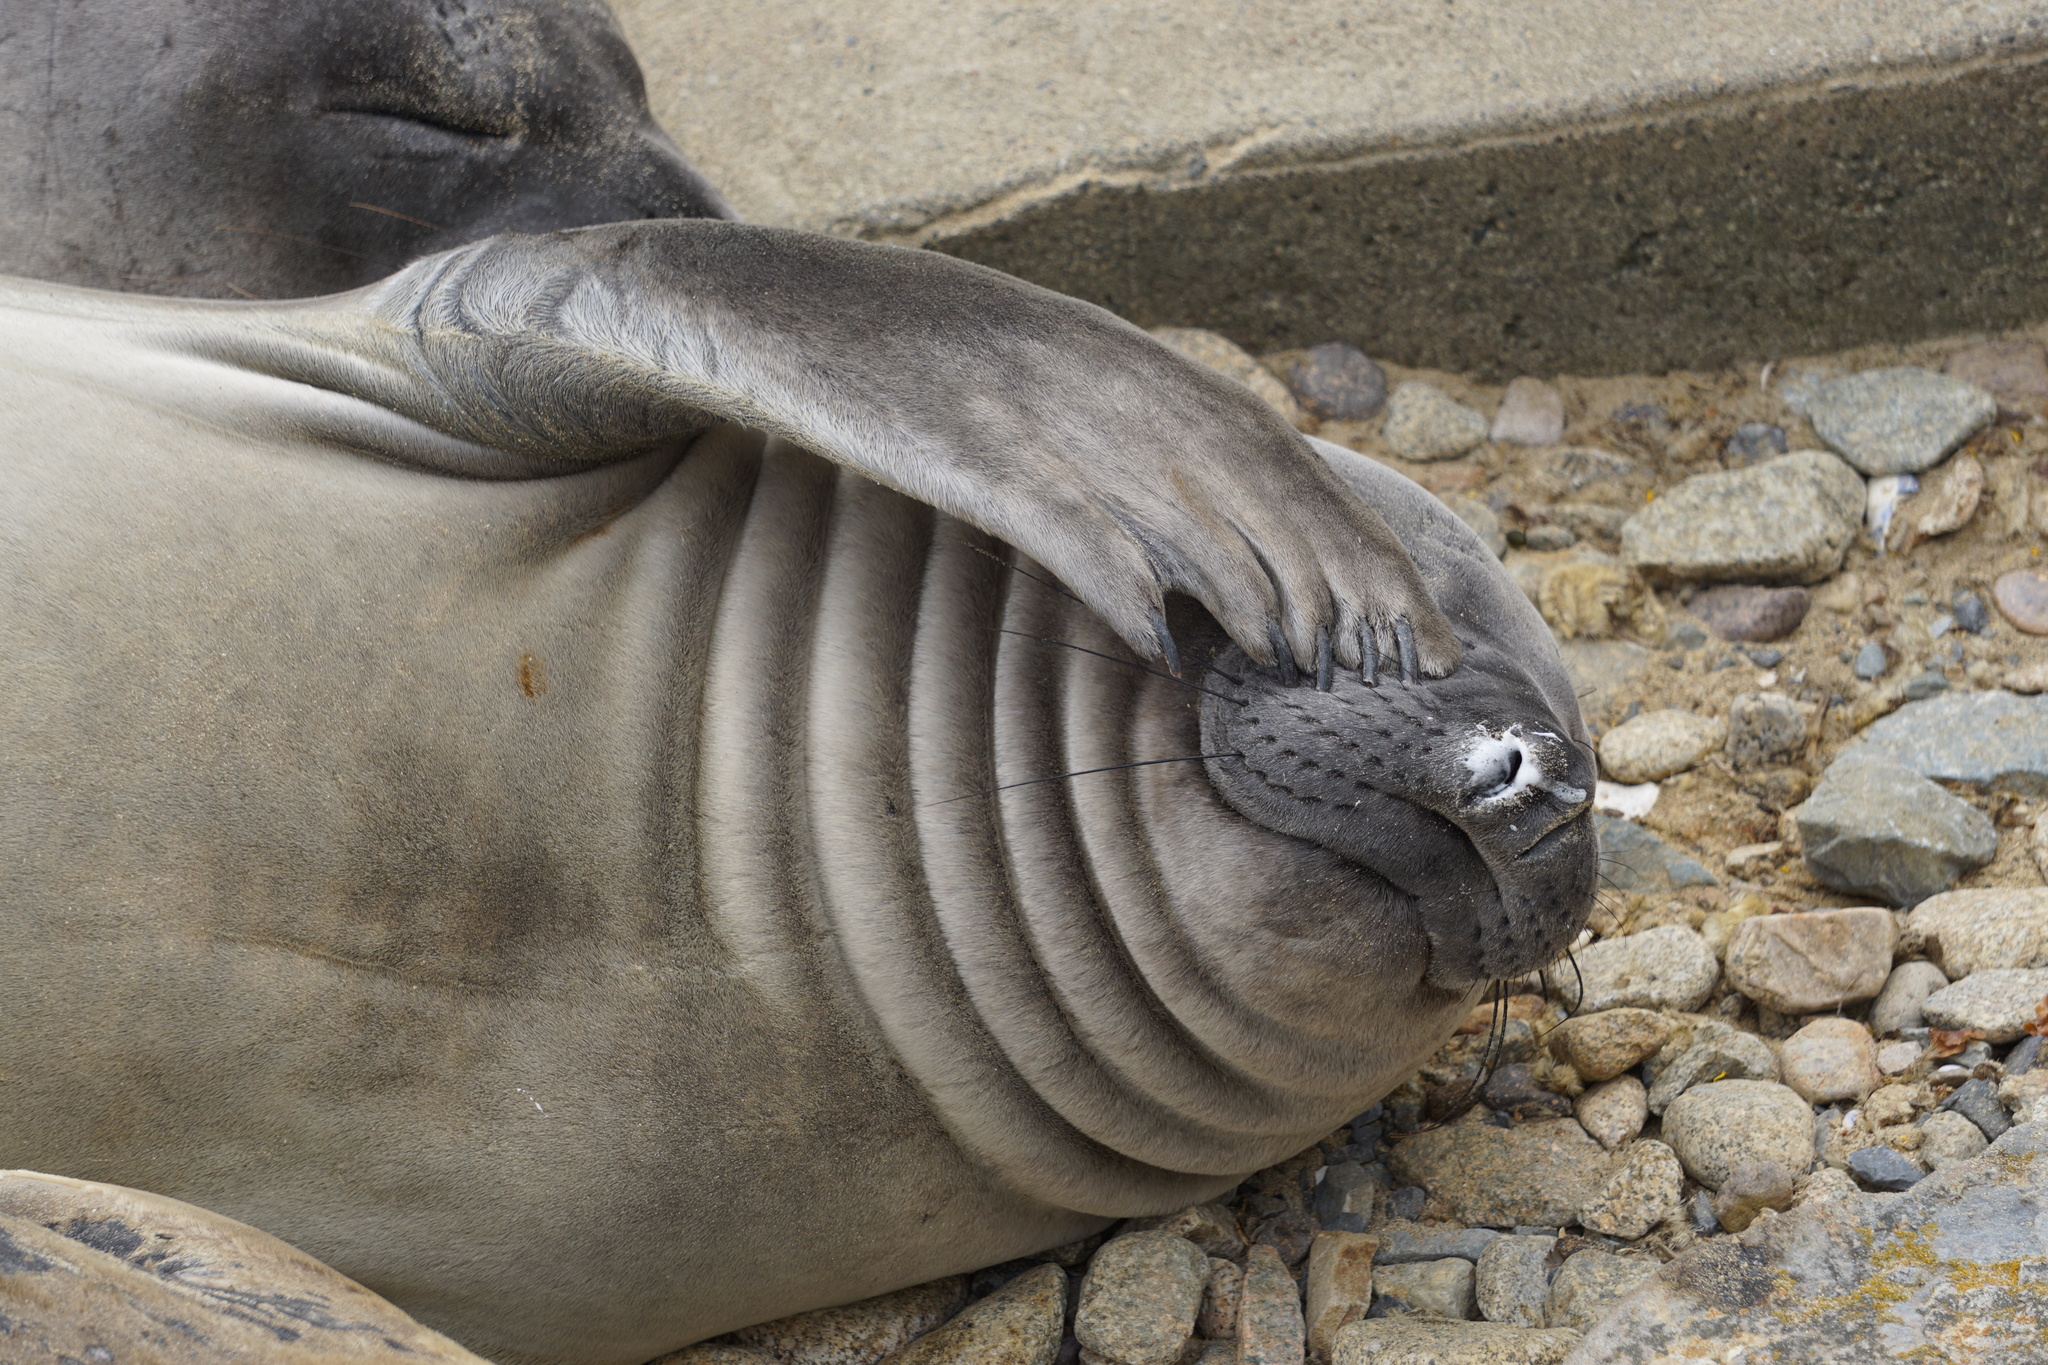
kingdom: Animalia
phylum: Chordata
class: Mammalia
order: Carnivora
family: Phocidae
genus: Mirounga
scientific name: Mirounga angustirostris
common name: Northern elephant seal
